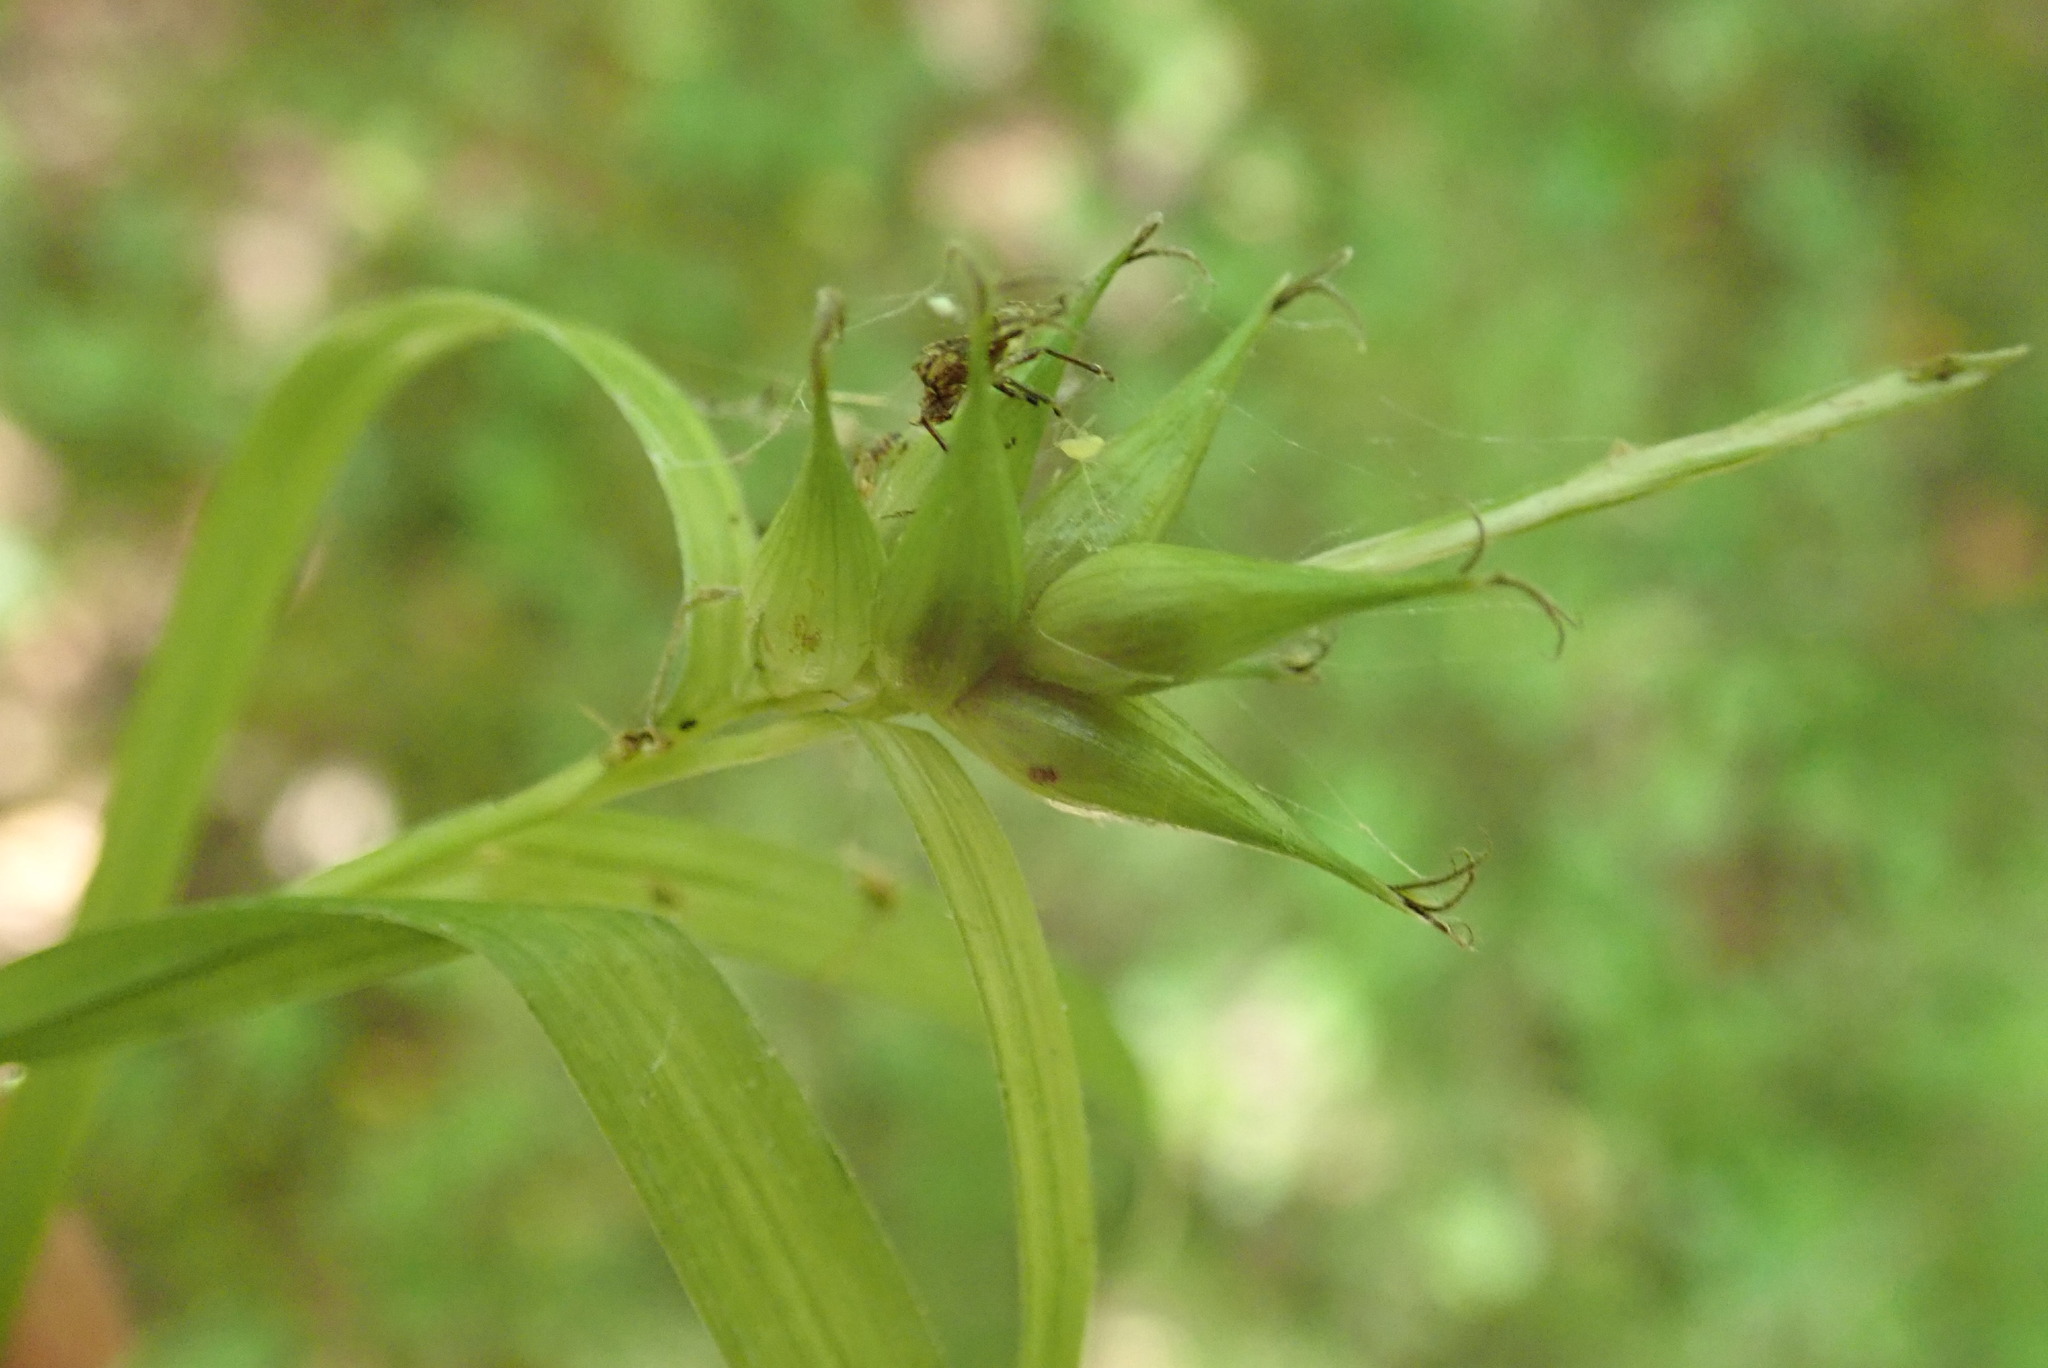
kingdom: Plantae
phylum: Tracheophyta
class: Liliopsida
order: Poales
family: Cyperaceae
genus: Carex
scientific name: Carex intumescens
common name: Greater bladder sedge
